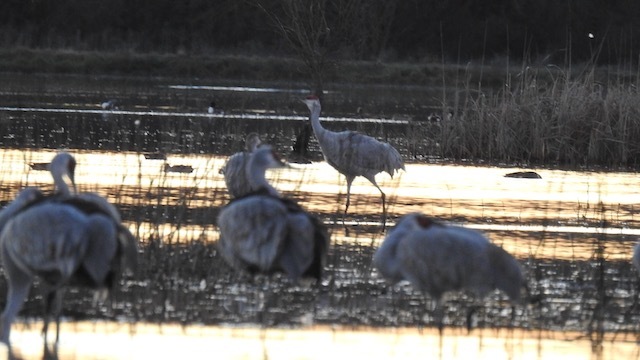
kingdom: Animalia
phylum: Chordata
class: Aves
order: Gruiformes
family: Gruidae
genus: Grus
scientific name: Grus canadensis
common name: Sandhill crane
